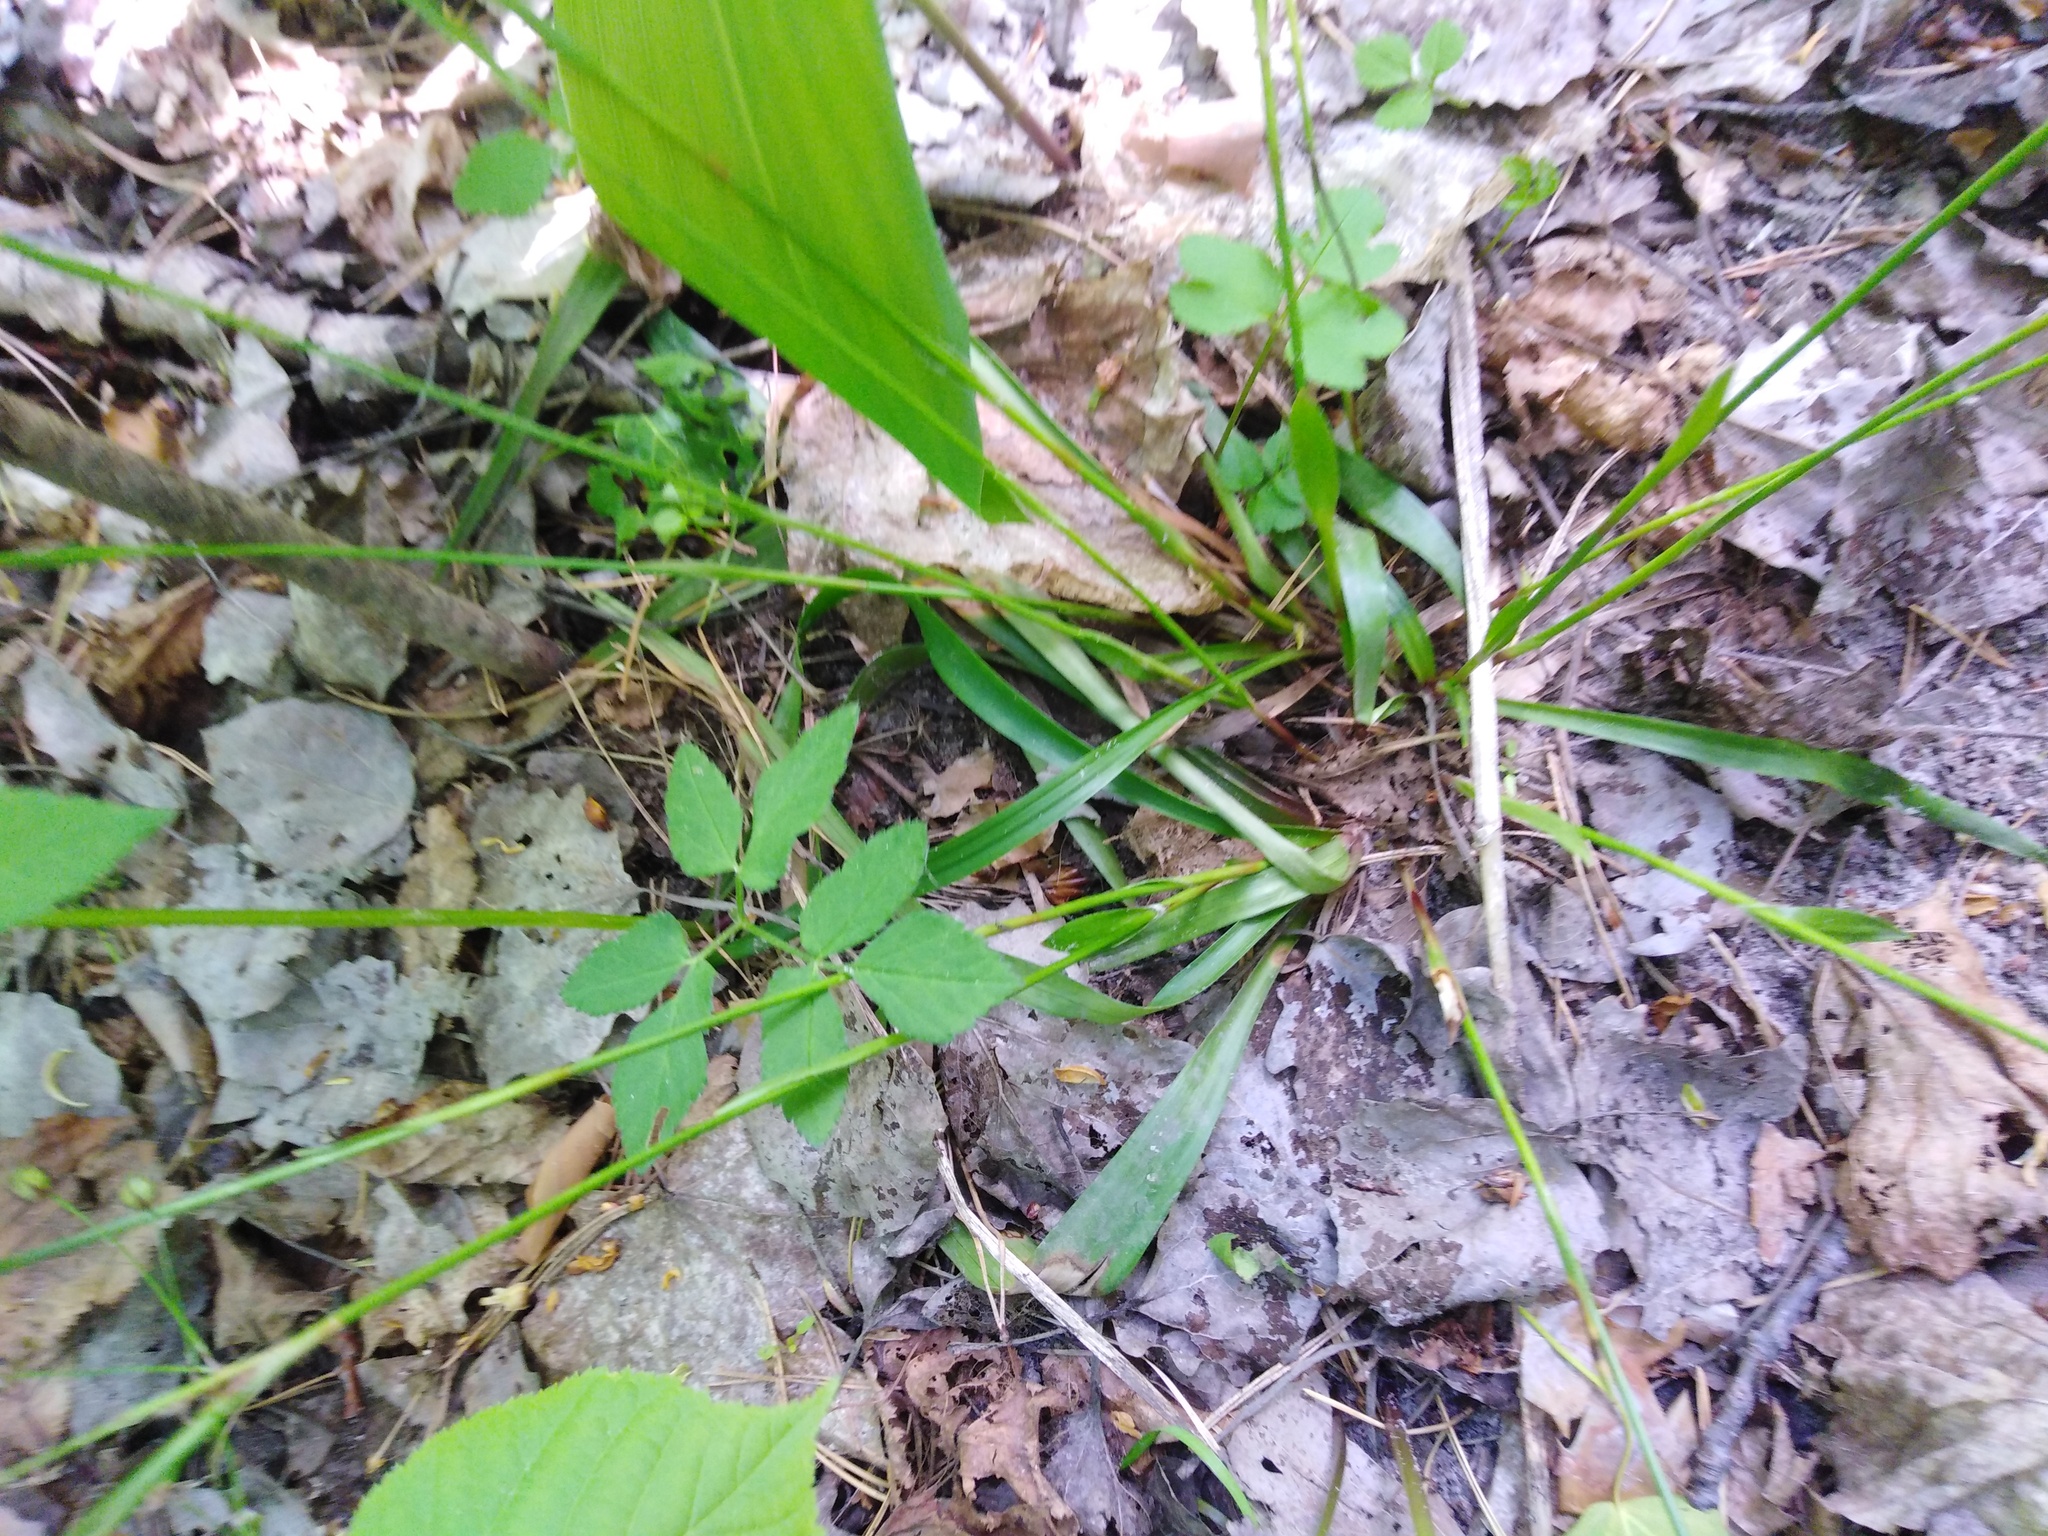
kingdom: Plantae
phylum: Tracheophyta
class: Liliopsida
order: Poales
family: Juncaceae
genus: Luzula
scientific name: Luzula pilosa
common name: Hairy wood-rush
